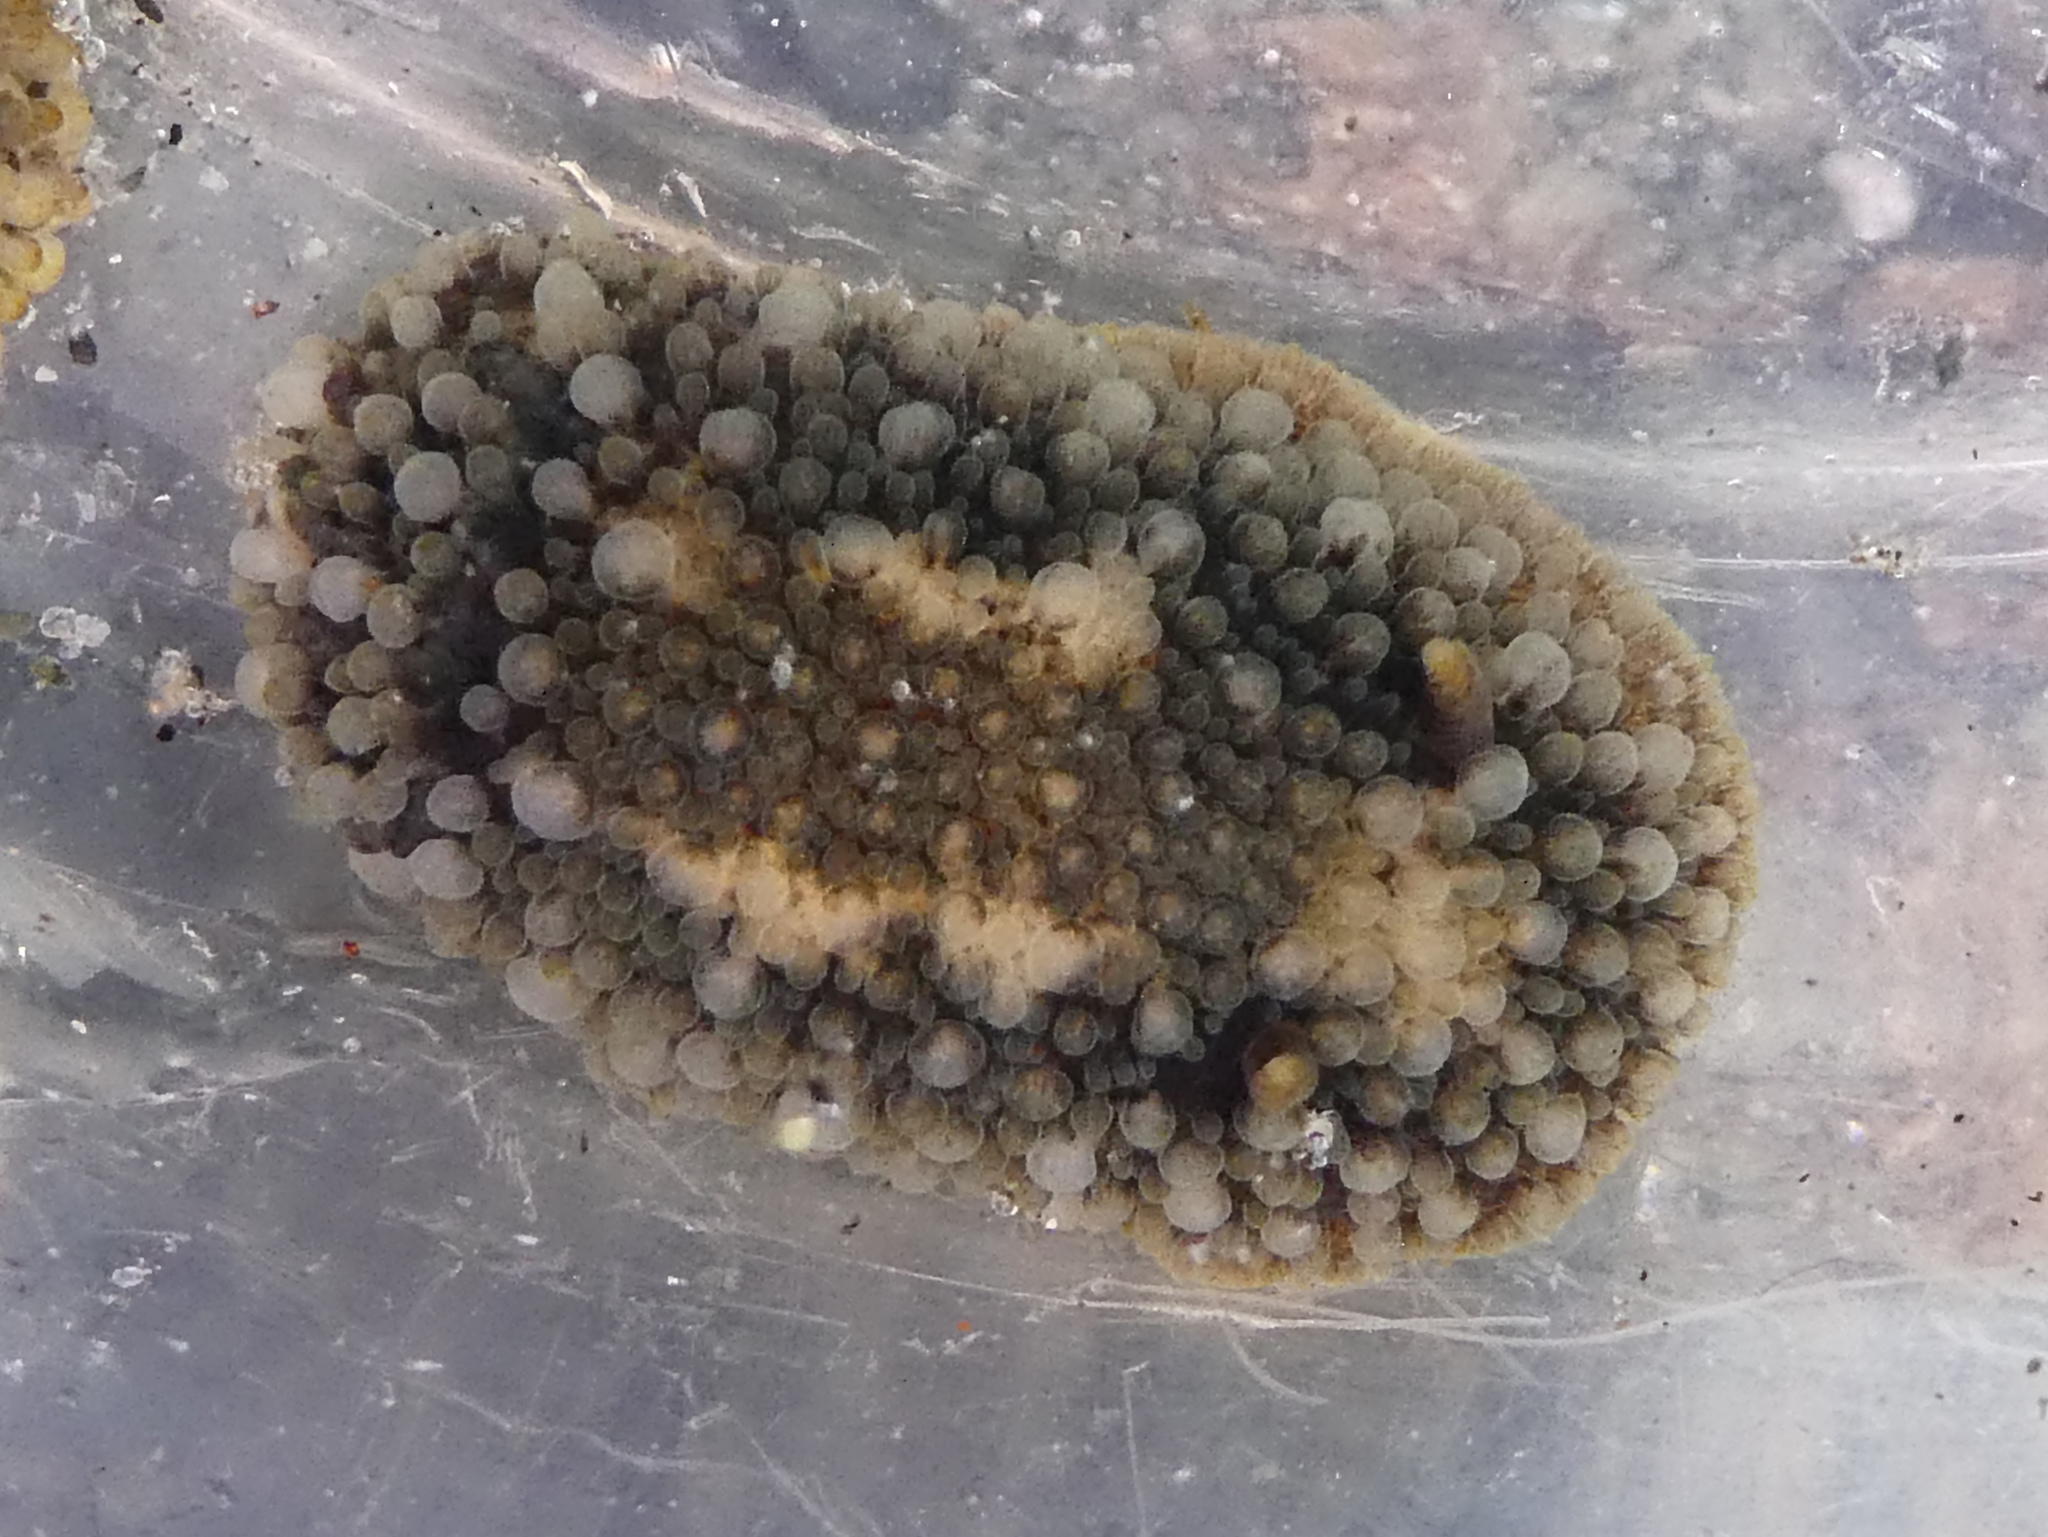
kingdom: Animalia
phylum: Mollusca
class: Gastropoda
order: Nudibranchia
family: Onchidorididae
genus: Onchidoris
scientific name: Onchidoris bilamellata
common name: Barnacle-eating onchidoris
